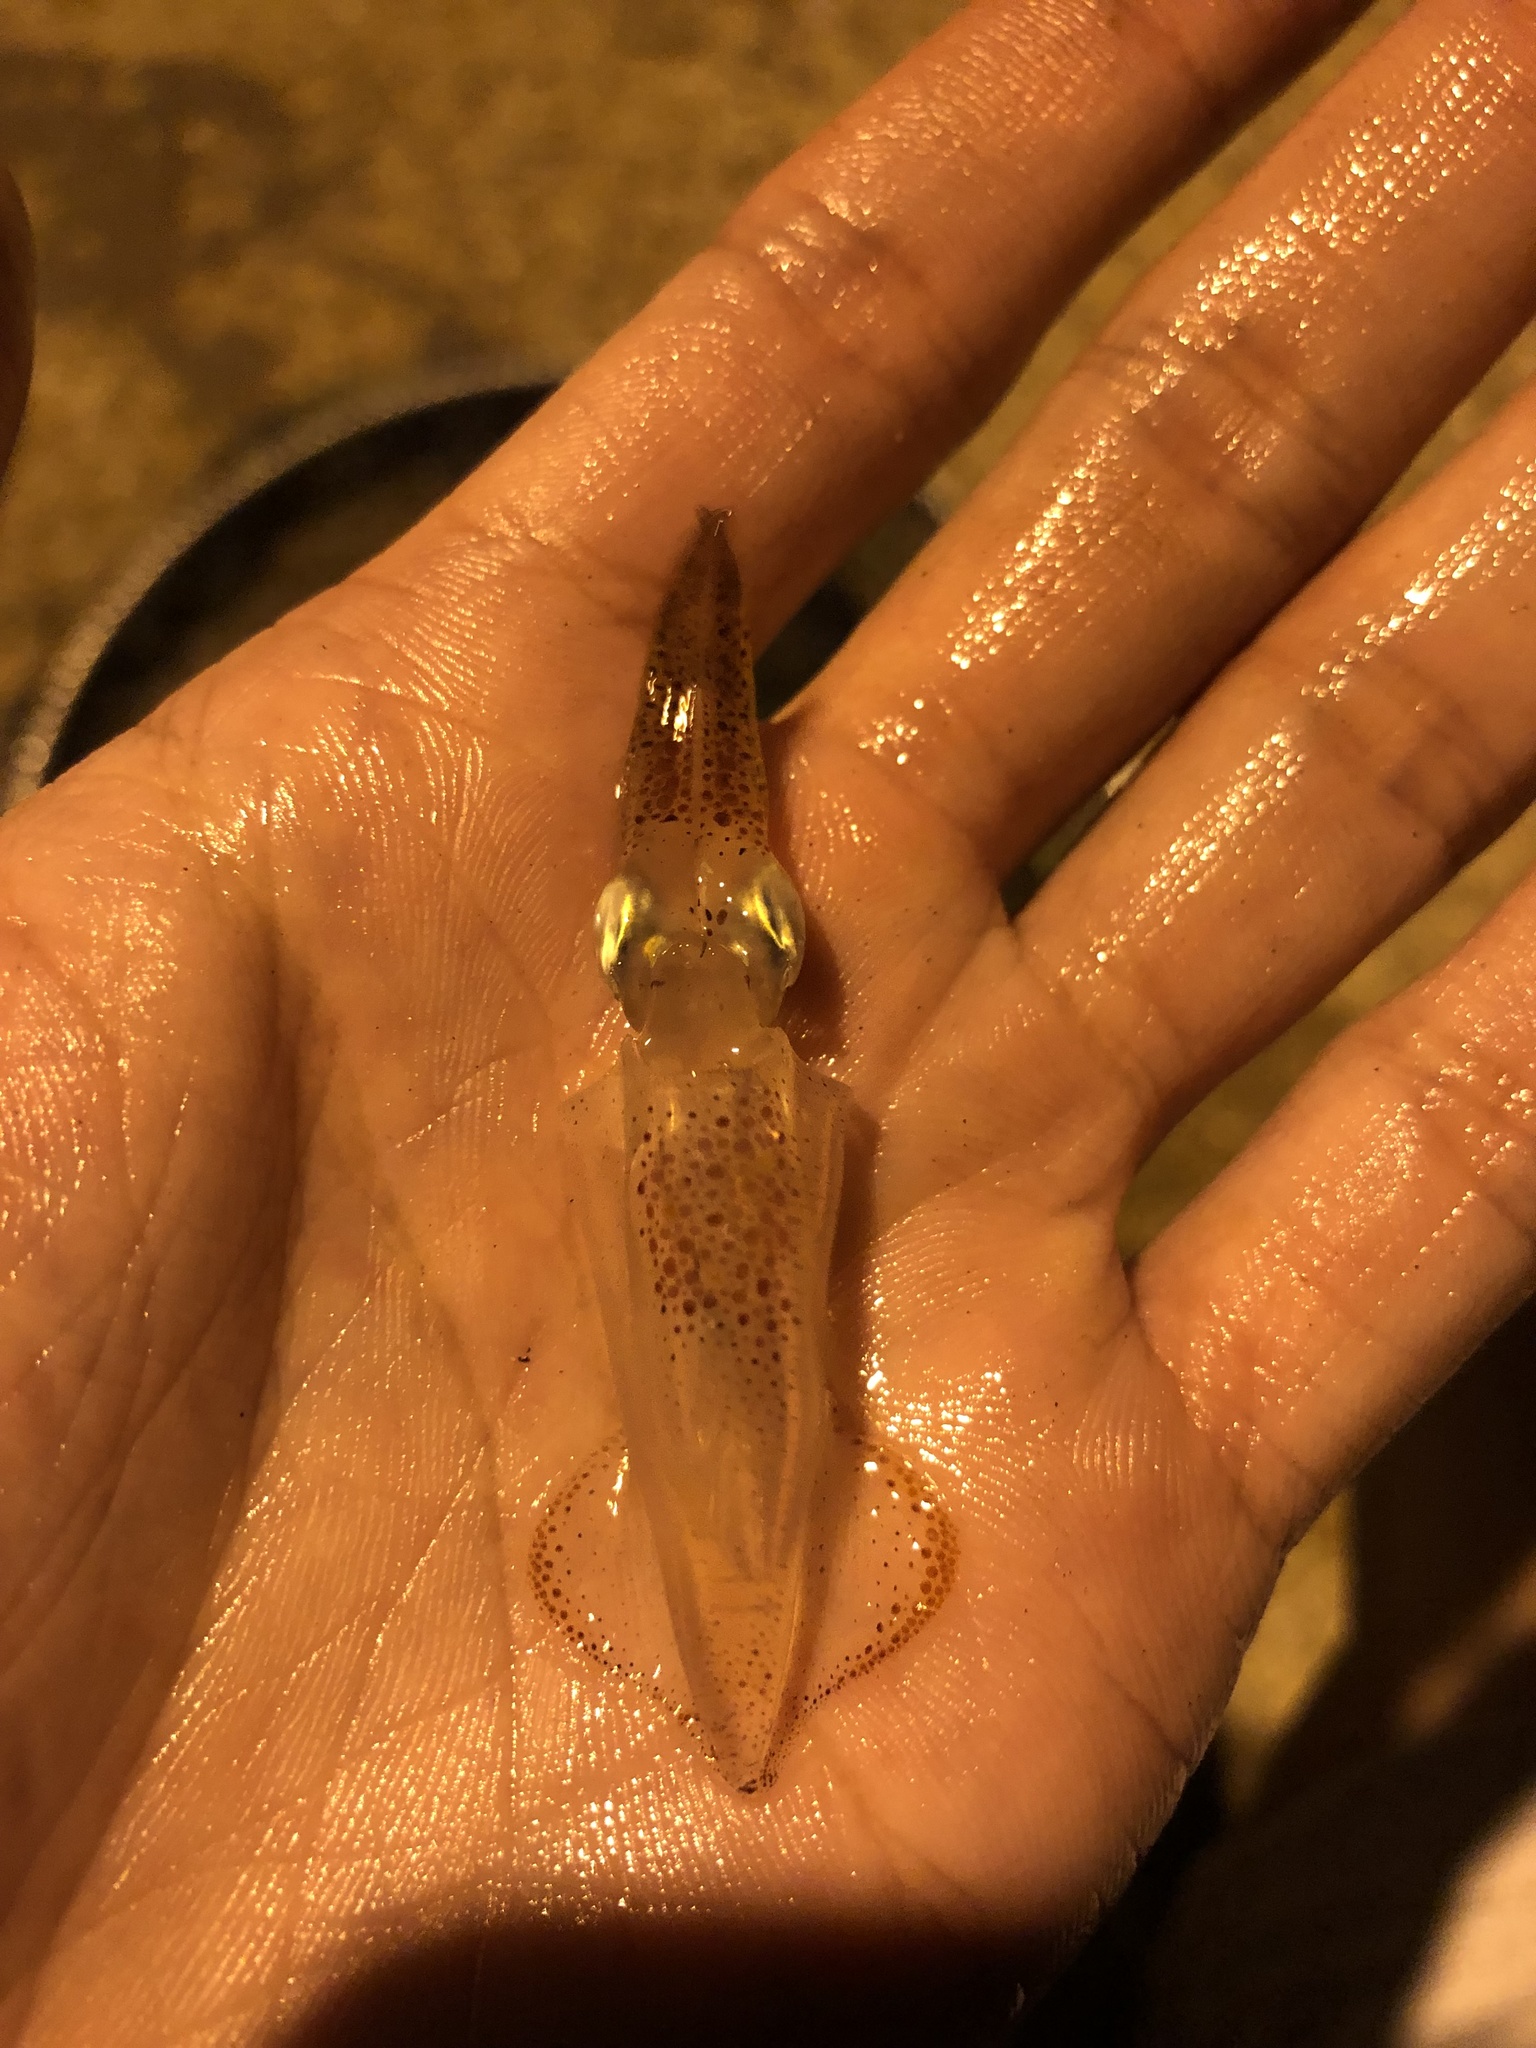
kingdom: Animalia
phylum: Mollusca
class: Cephalopoda
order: Myopsida
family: Loliginidae
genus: Uroteuthis
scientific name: Uroteuthis edulis
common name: Swordtip squid
